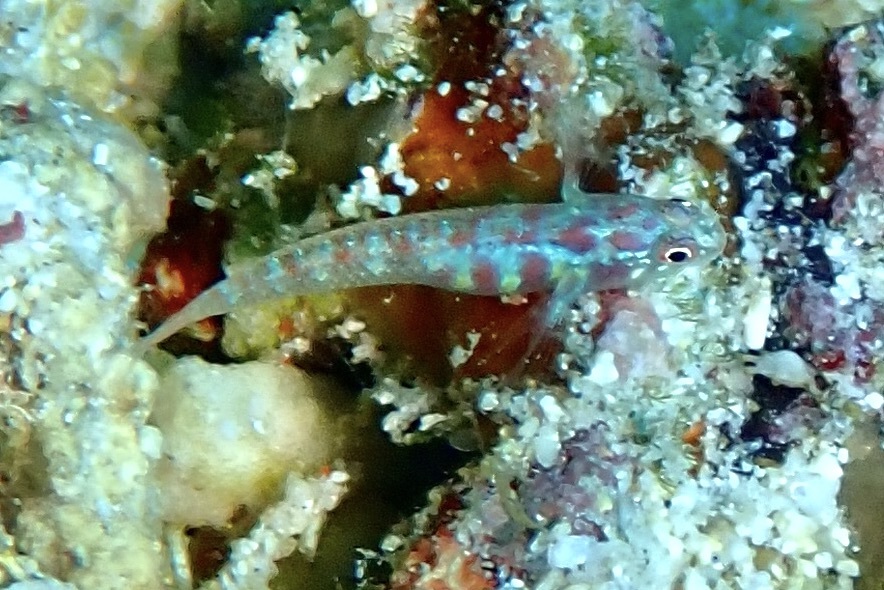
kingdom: Animalia
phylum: Chordata
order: Perciformes
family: Gobiidae
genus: Eviota
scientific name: Eviota teresae
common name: Terry's dwarfgoby
